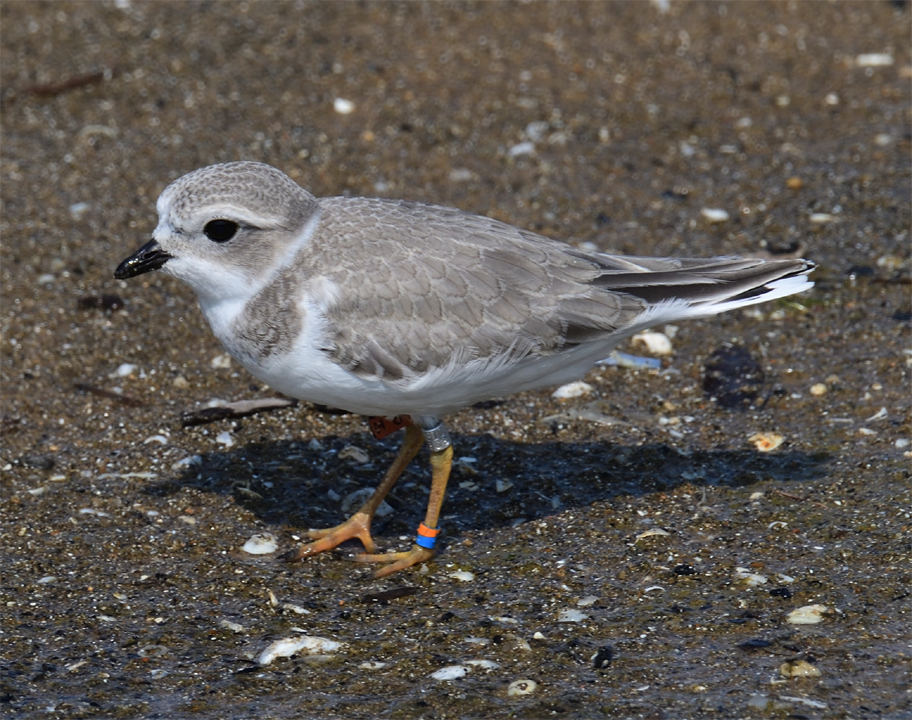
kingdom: Animalia
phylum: Chordata
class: Aves
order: Charadriiformes
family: Charadriidae
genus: Charadrius
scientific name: Charadrius melodus
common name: Piping plover
